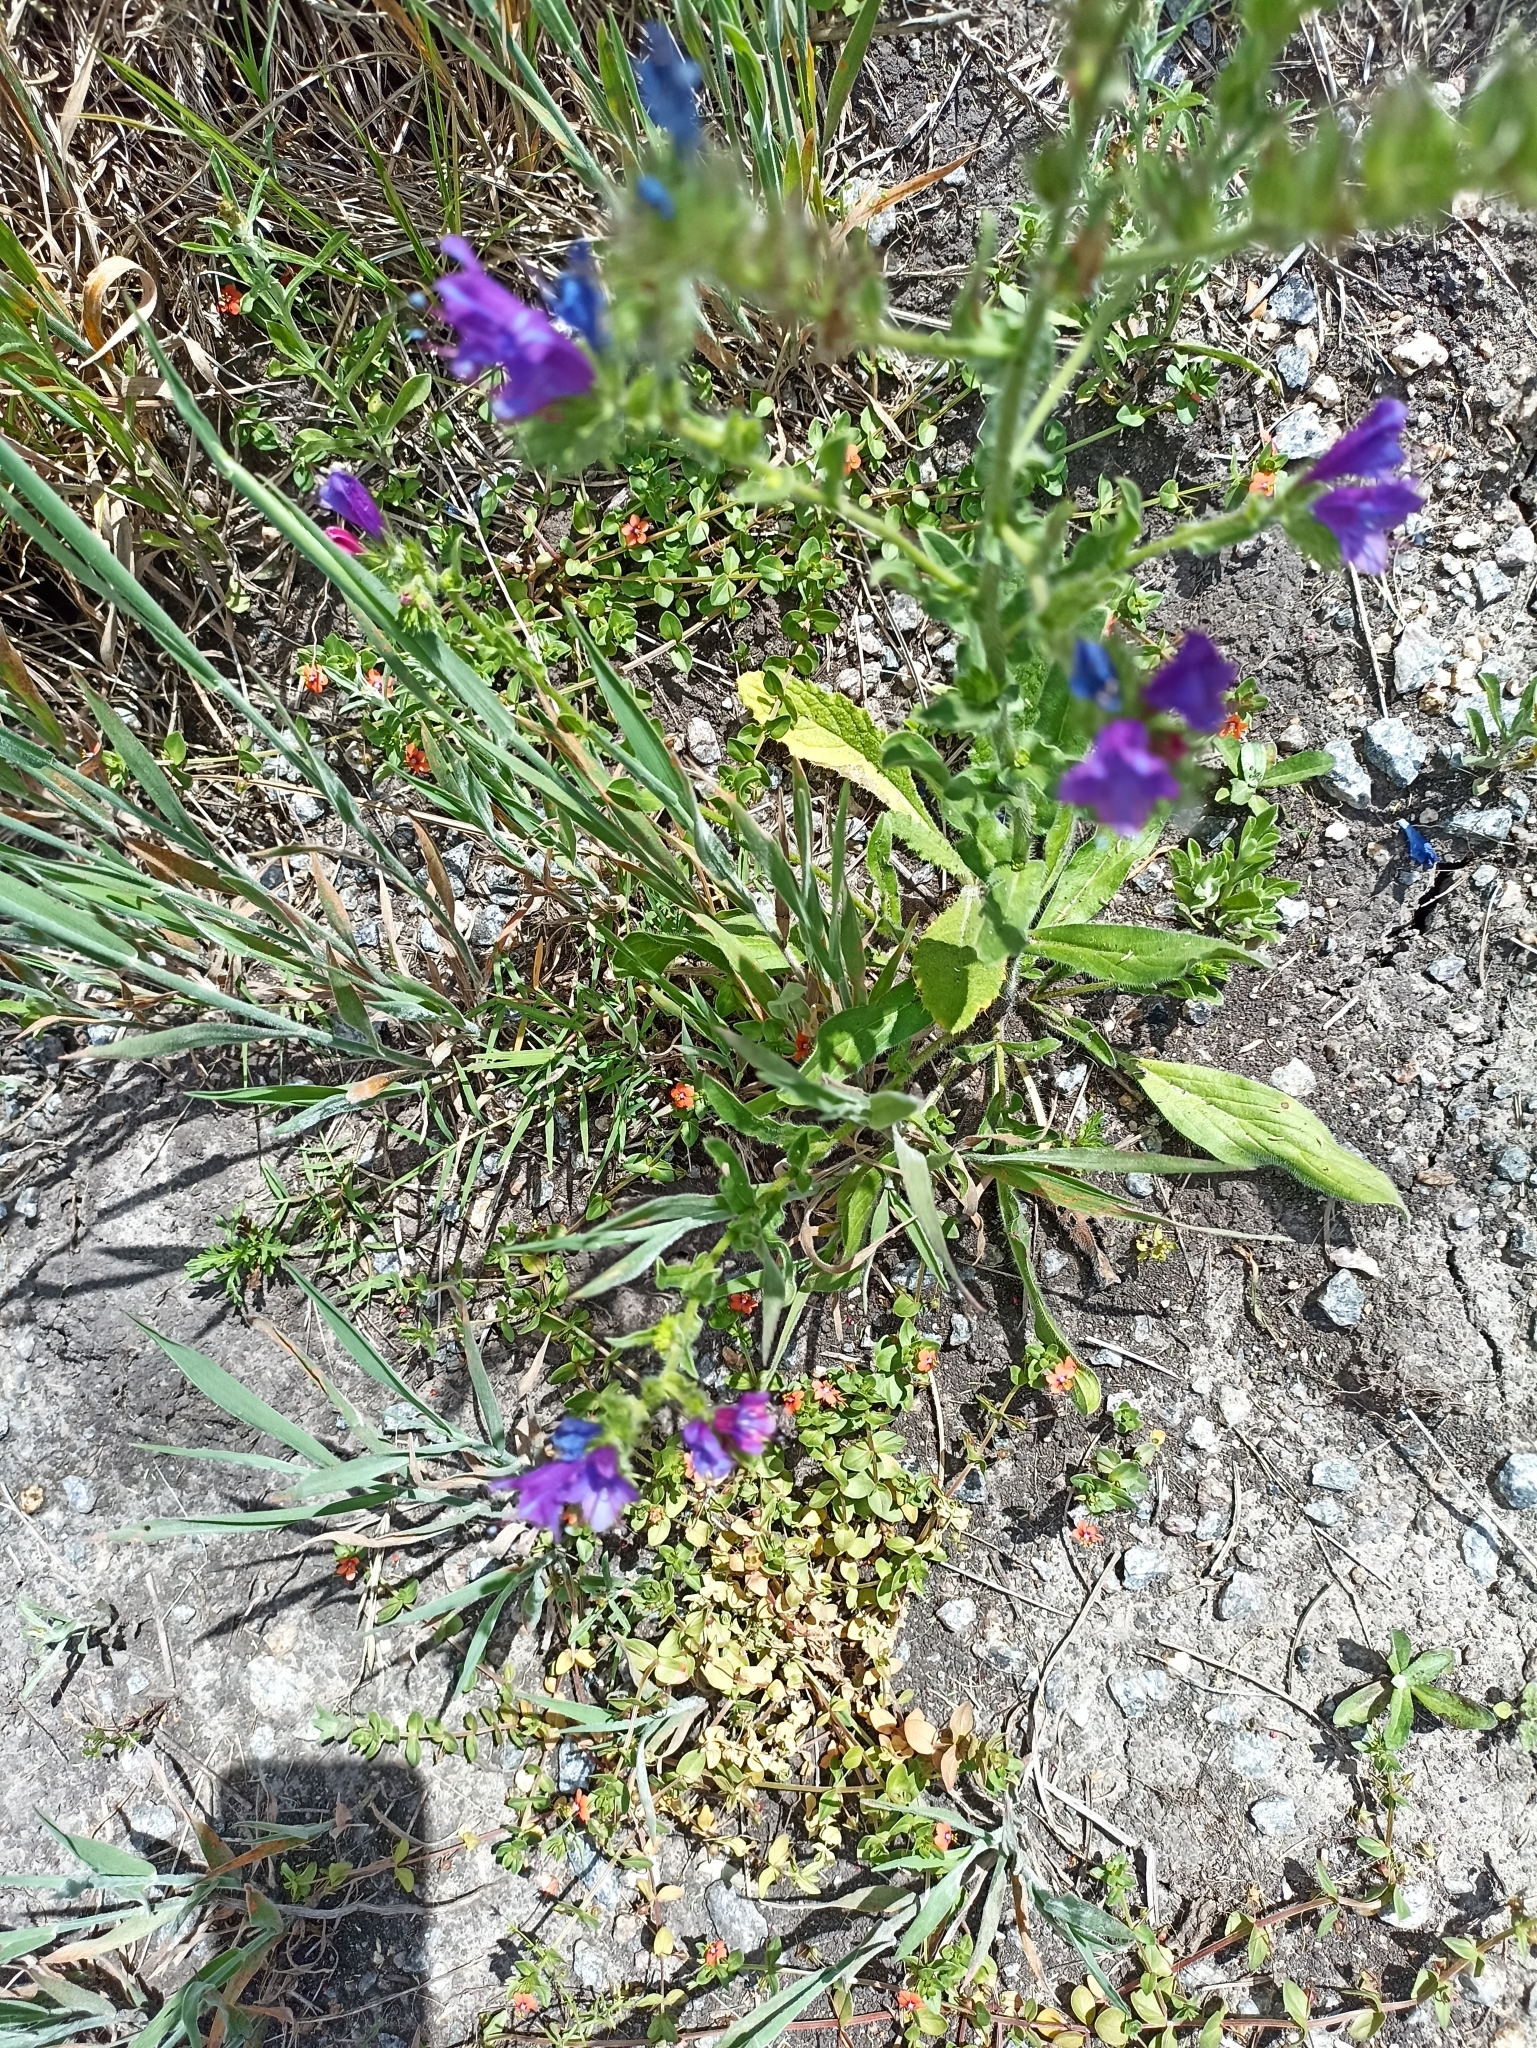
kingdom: Plantae
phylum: Tracheophyta
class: Magnoliopsida
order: Boraginales
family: Boraginaceae
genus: Echium
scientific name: Echium plantagineum
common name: Purple viper's-bugloss
